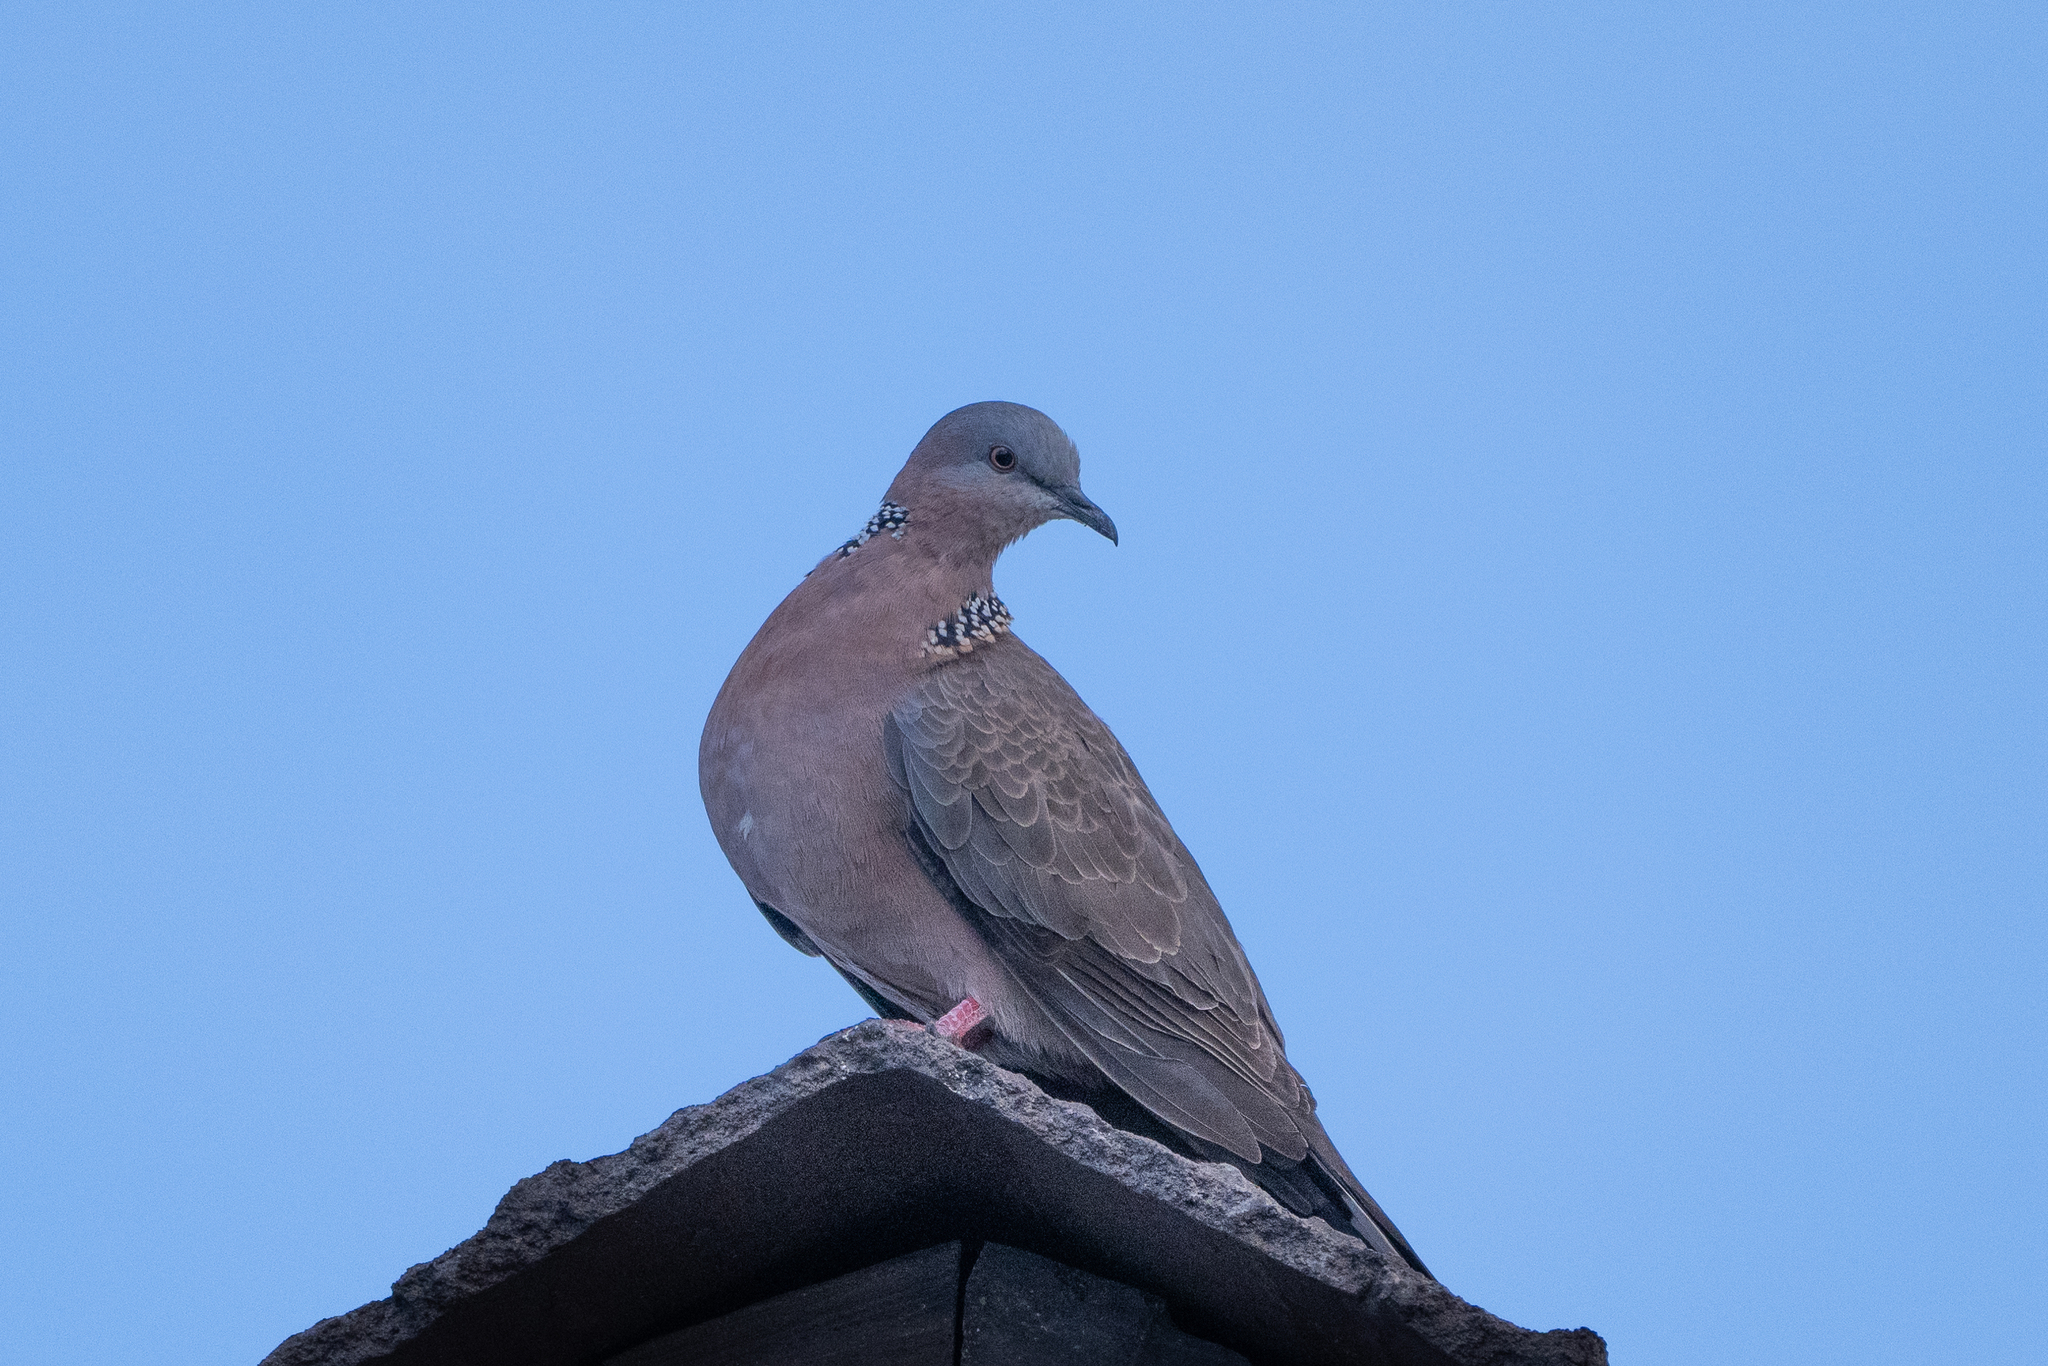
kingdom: Animalia
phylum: Chordata
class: Aves
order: Columbiformes
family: Columbidae
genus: Spilopelia
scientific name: Spilopelia chinensis
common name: Spotted dove
